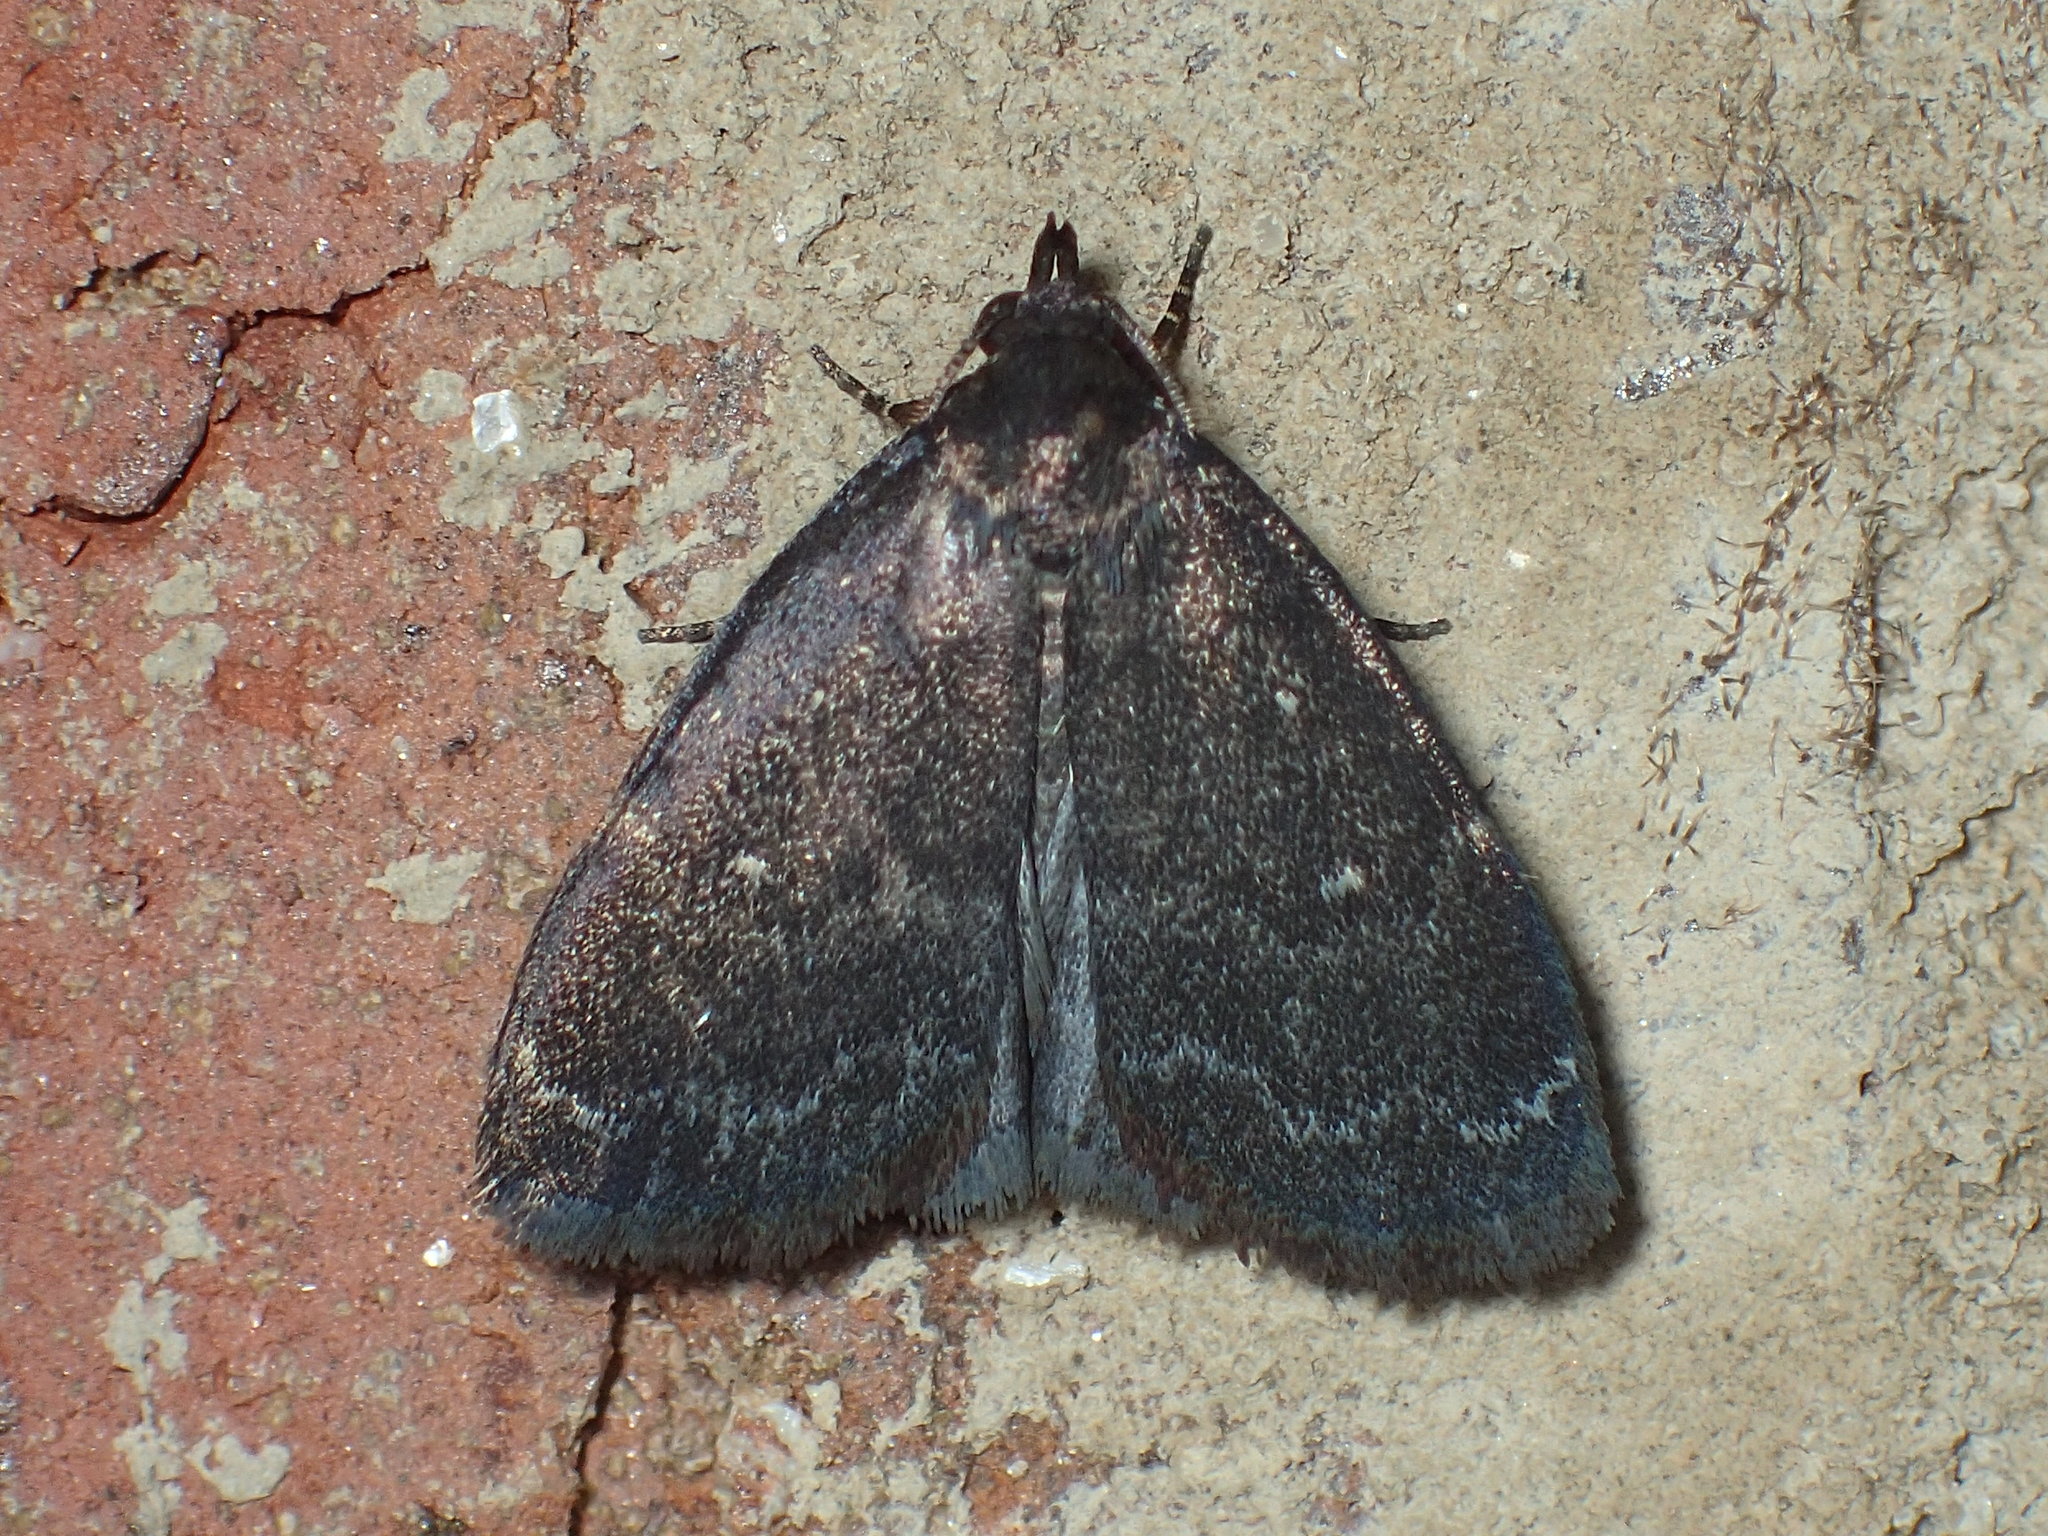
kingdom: Animalia
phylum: Arthropoda
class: Insecta
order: Lepidoptera
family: Erebidae
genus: Idia
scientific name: Idia julia
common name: Julia's idia moth
